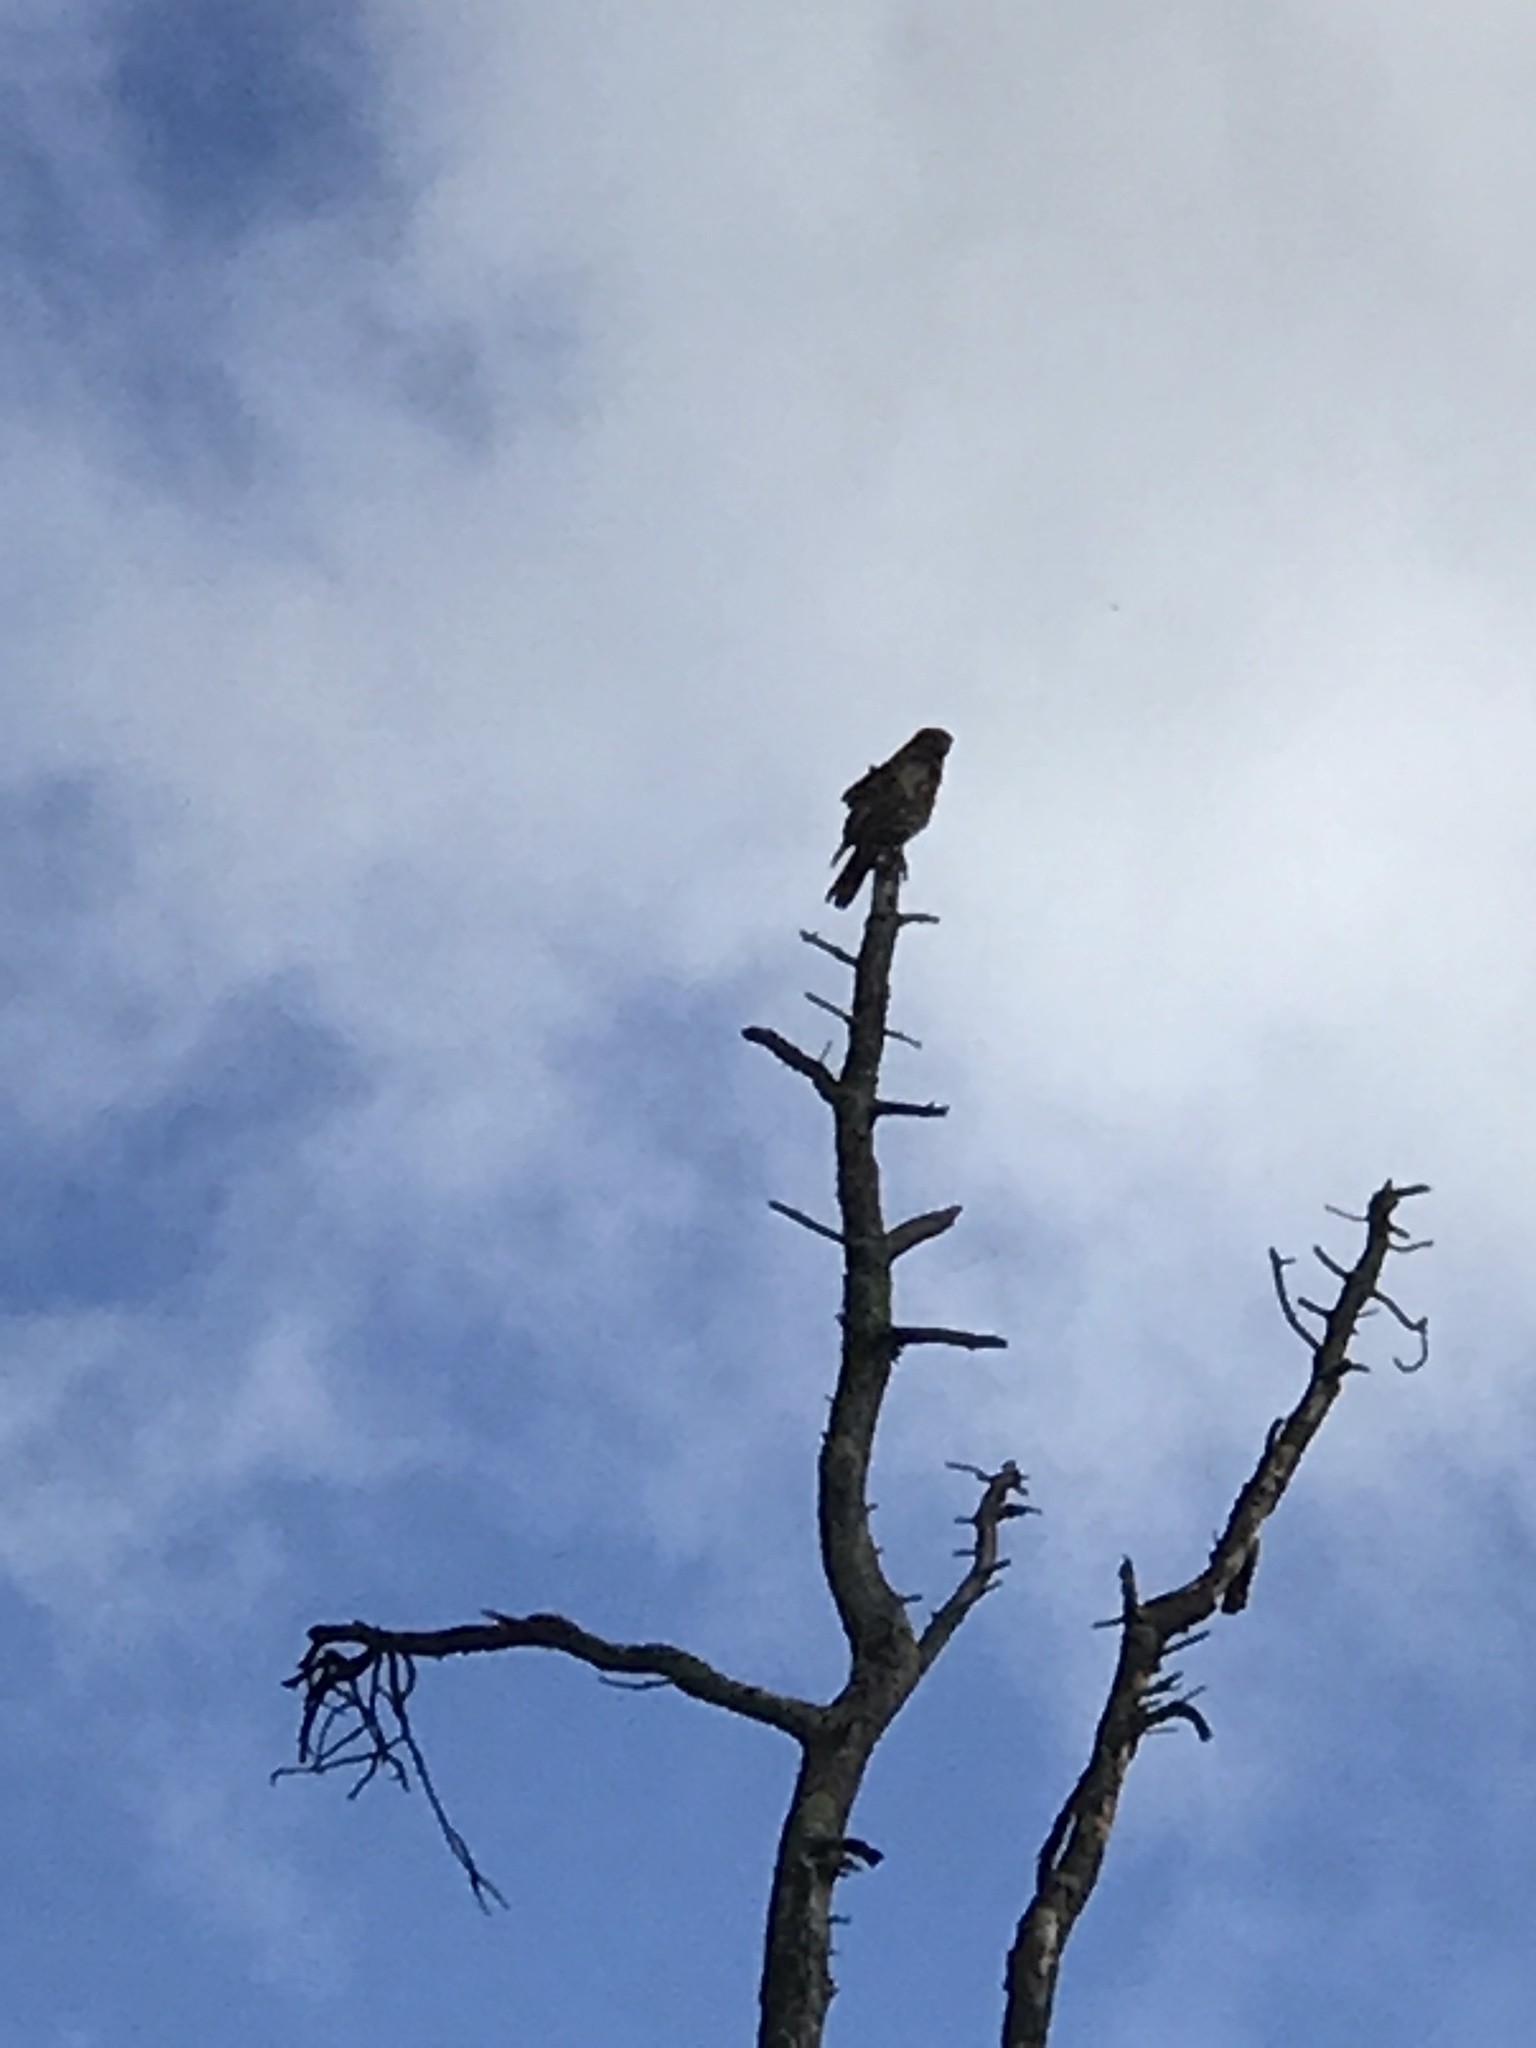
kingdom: Animalia
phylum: Chordata
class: Aves
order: Accipitriformes
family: Accipitridae
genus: Buteo
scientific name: Buteo lineatus
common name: Red-shouldered hawk
